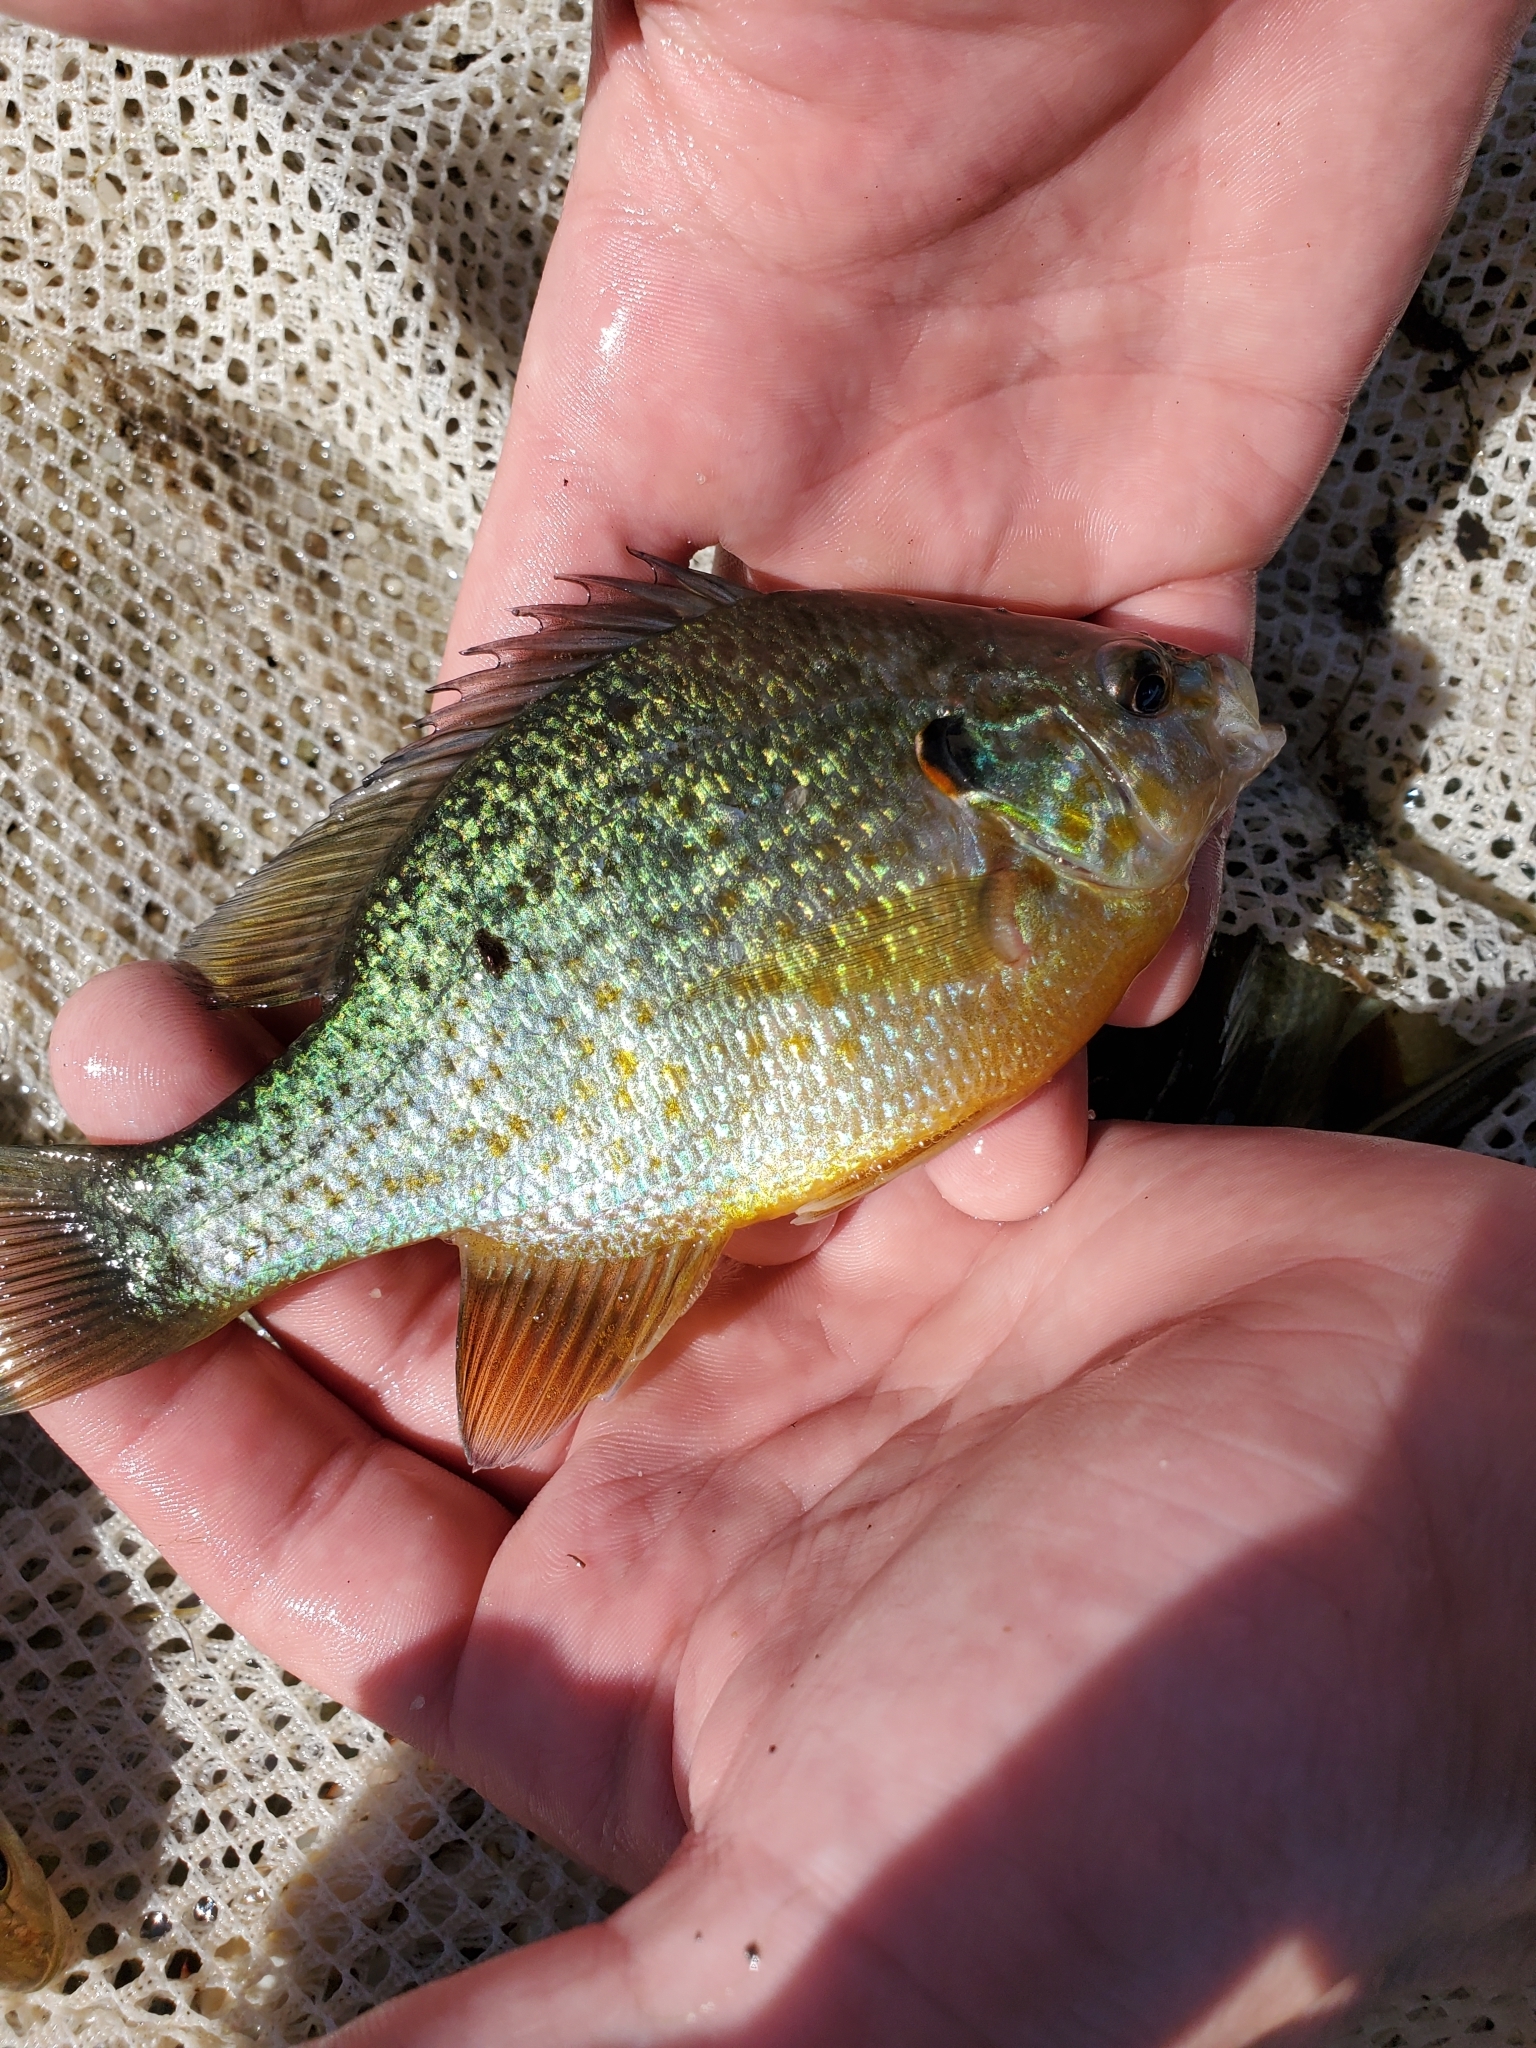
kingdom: Animalia
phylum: Chordata
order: Perciformes
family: Centrarchidae
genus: Lepomis
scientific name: Lepomis gibbosus
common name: Pumpkinseed
